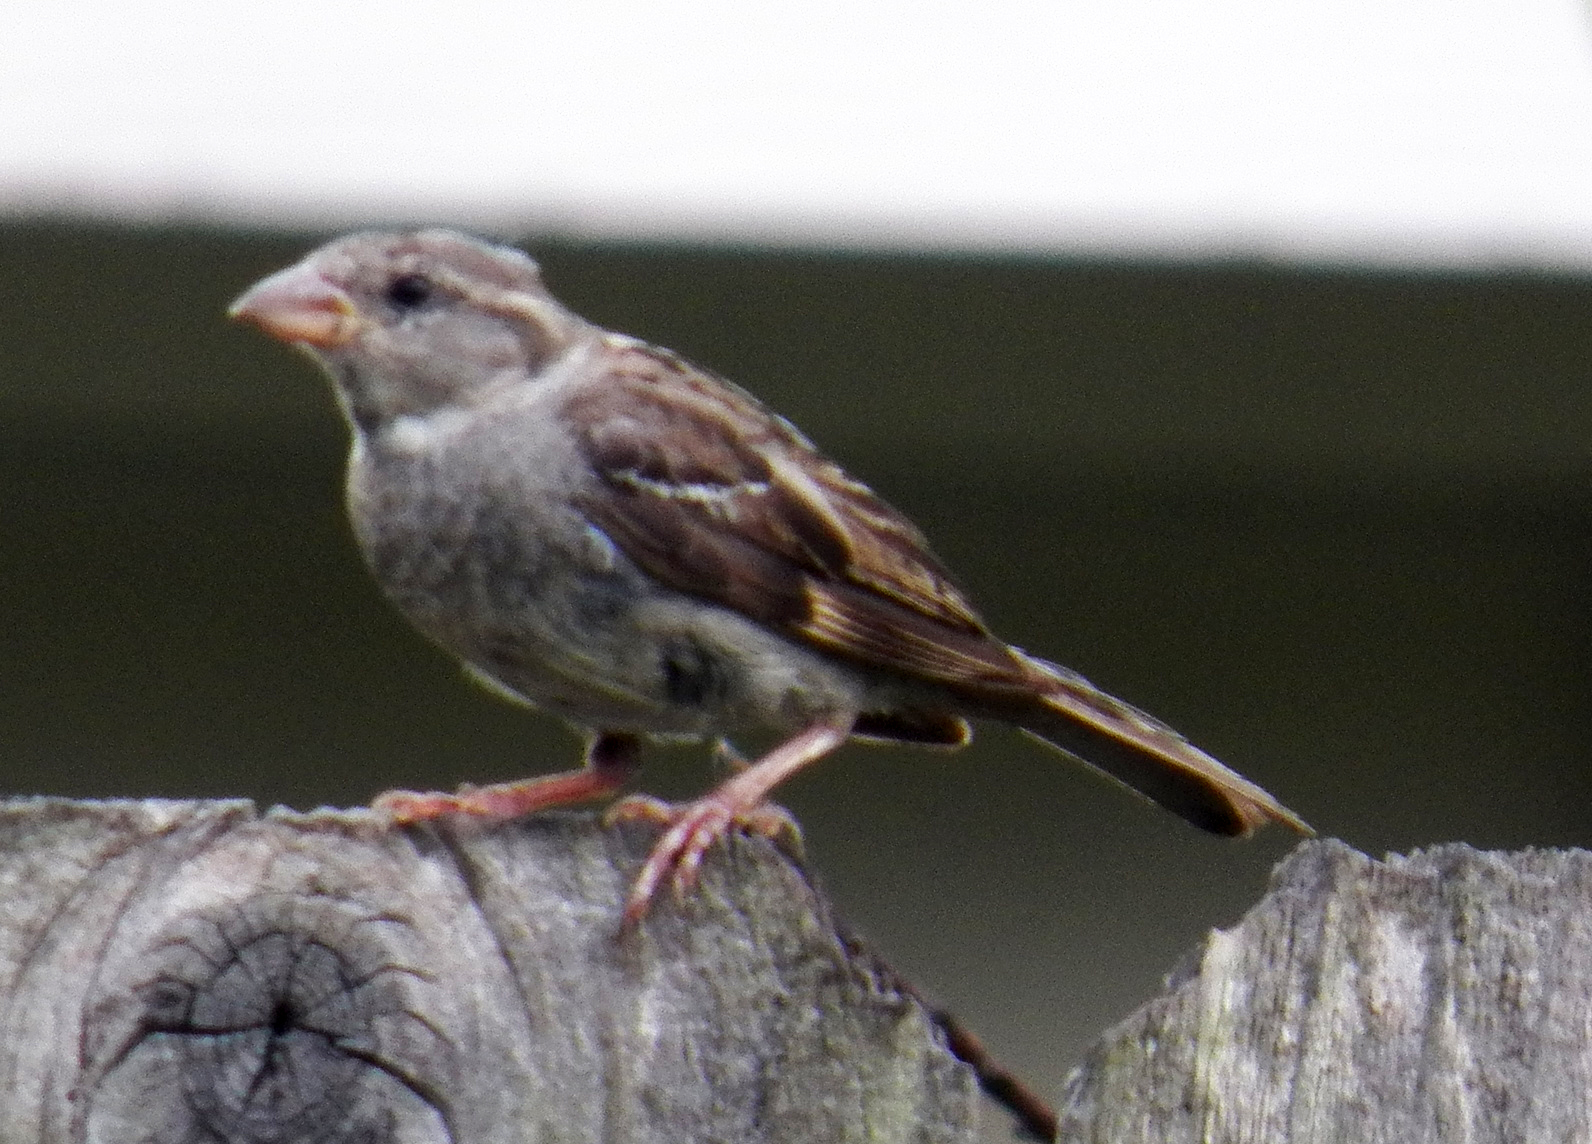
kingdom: Animalia
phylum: Chordata
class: Aves
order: Passeriformes
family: Passeridae
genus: Passer
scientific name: Passer domesticus
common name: House sparrow
